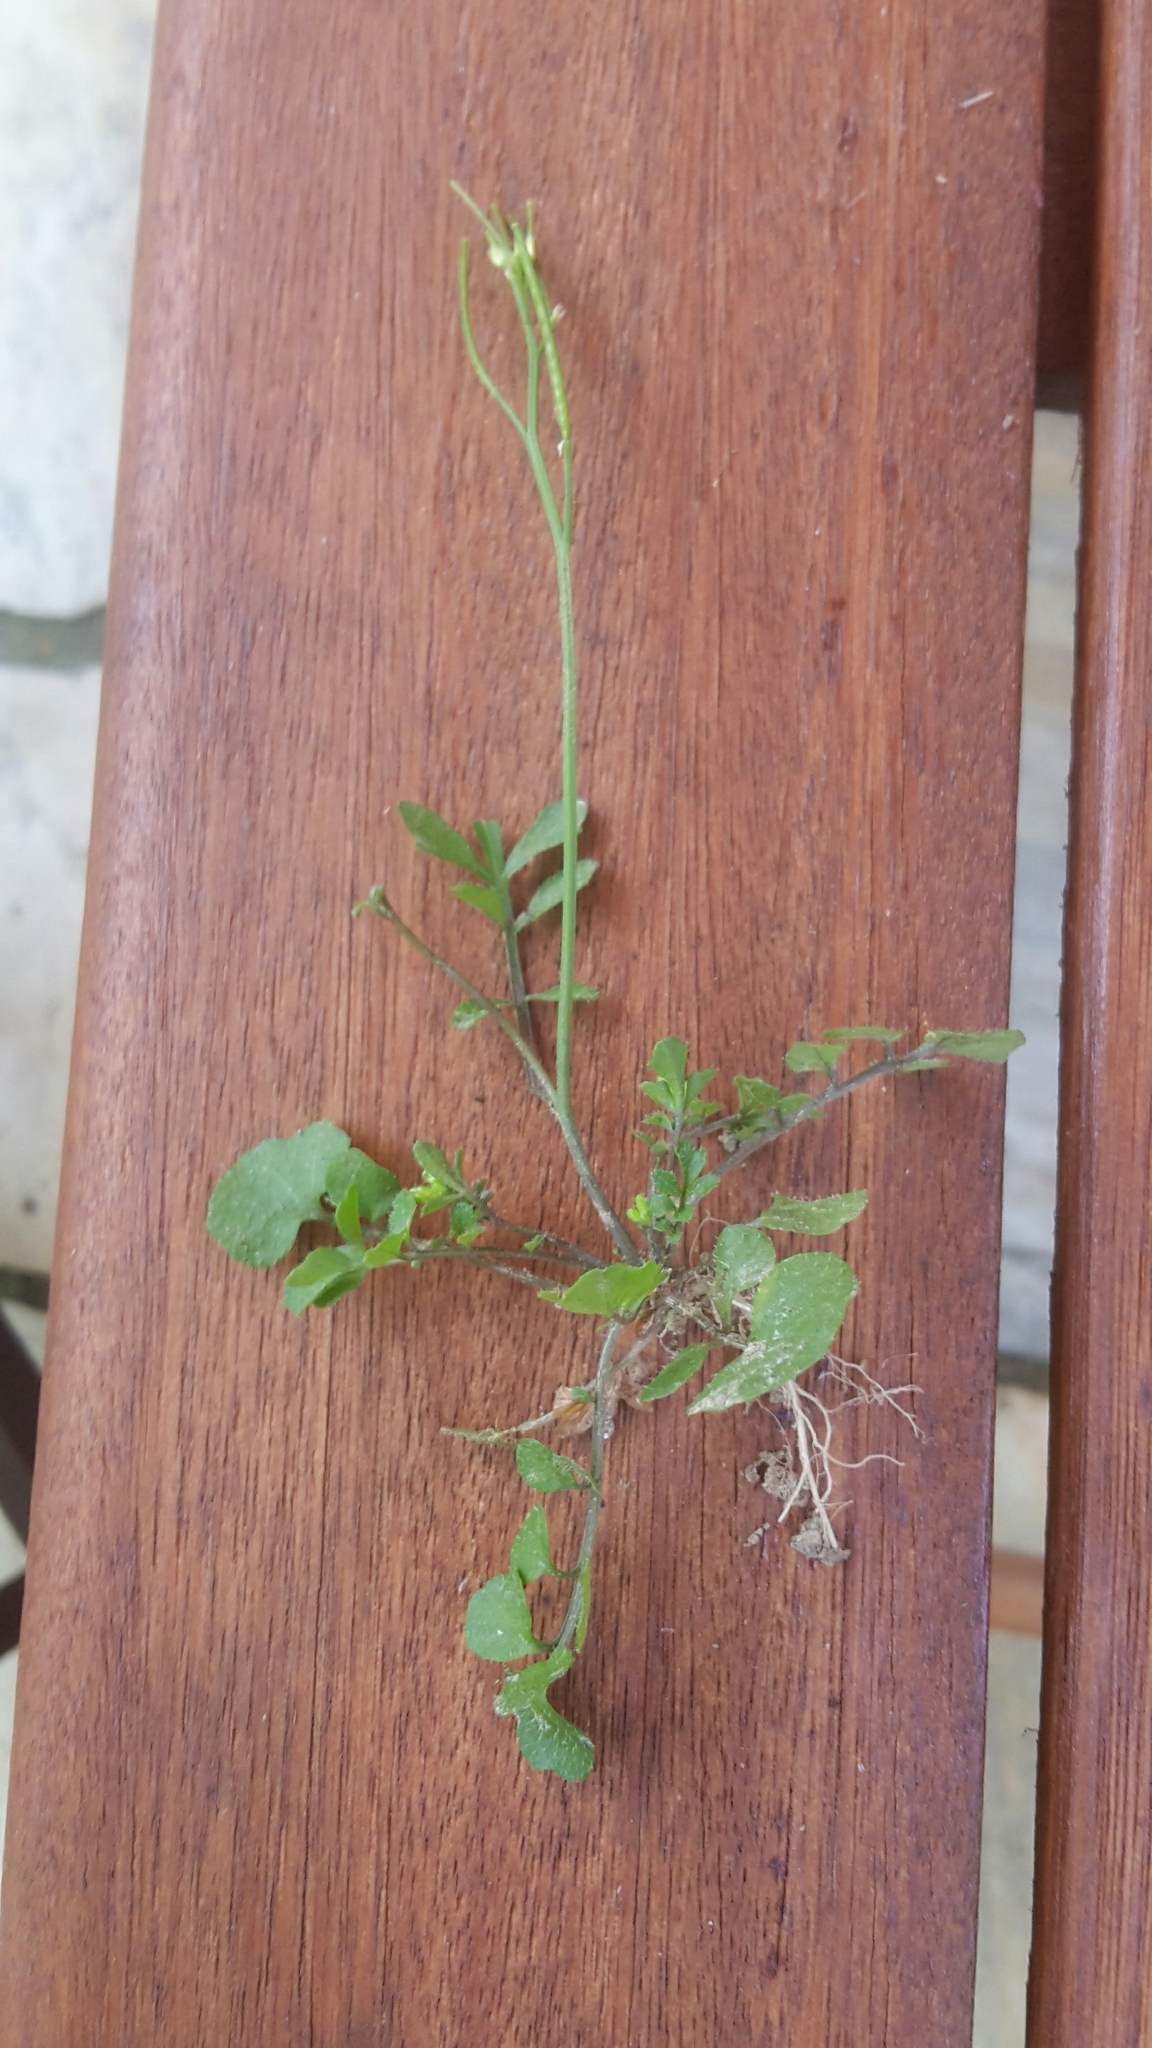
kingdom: Plantae
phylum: Tracheophyta
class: Magnoliopsida
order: Brassicales
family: Brassicaceae
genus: Cardamine
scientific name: Cardamine hirsuta
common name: Hairy bittercress
